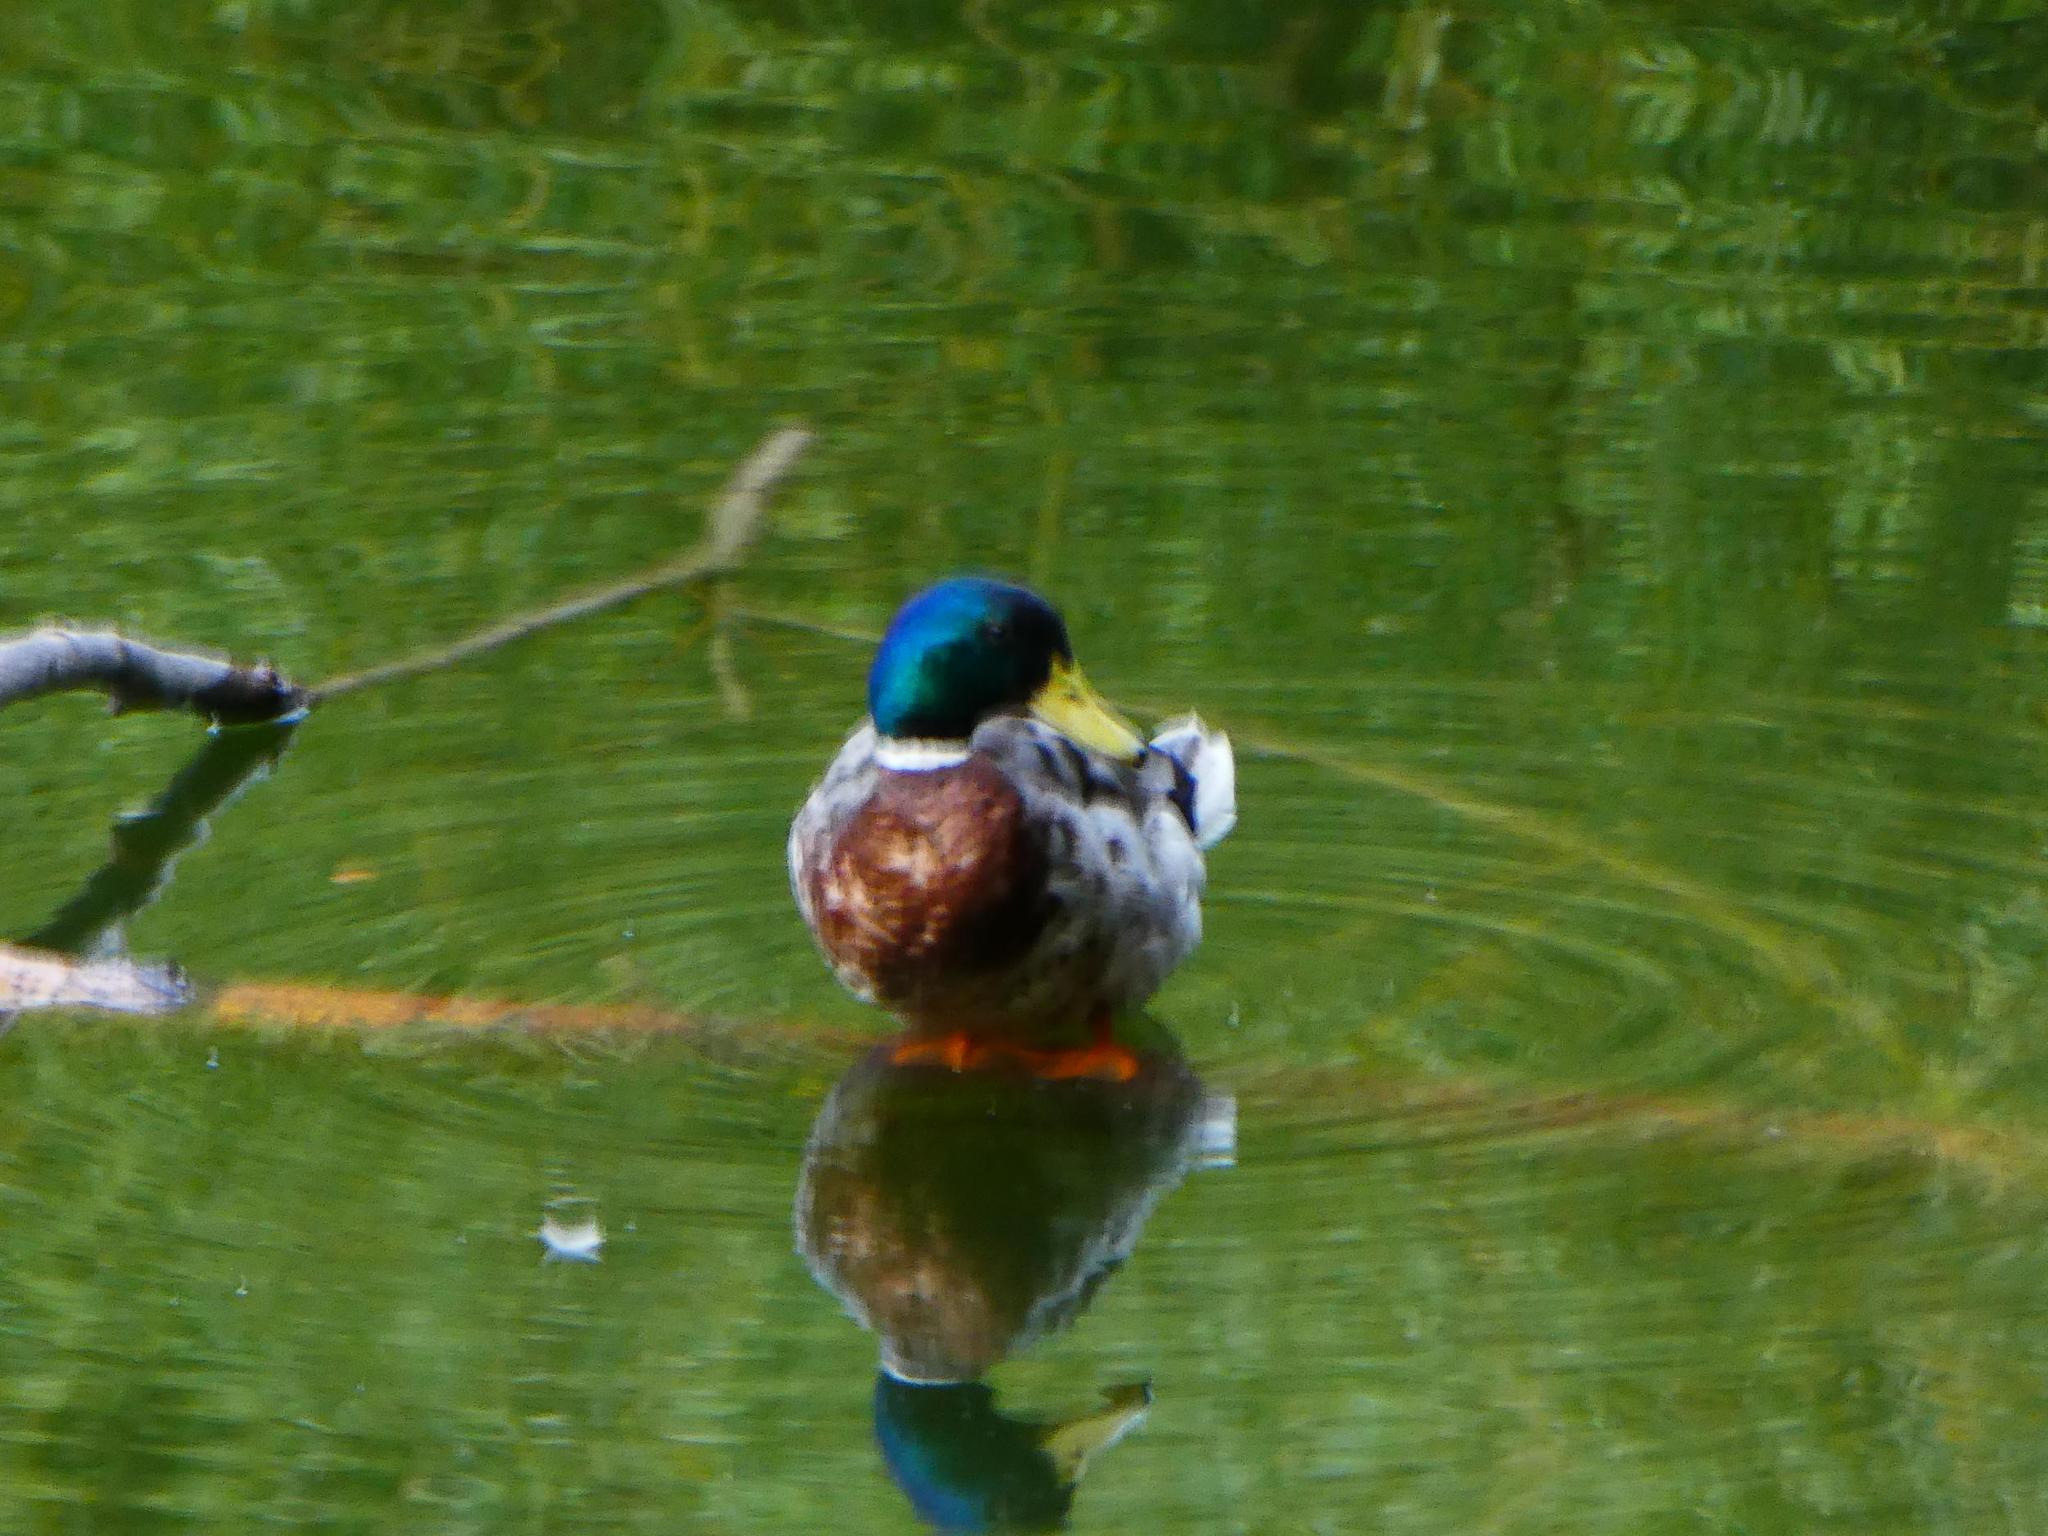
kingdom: Animalia
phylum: Chordata
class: Aves
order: Anseriformes
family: Anatidae
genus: Anas
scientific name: Anas platyrhynchos
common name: Mallard
